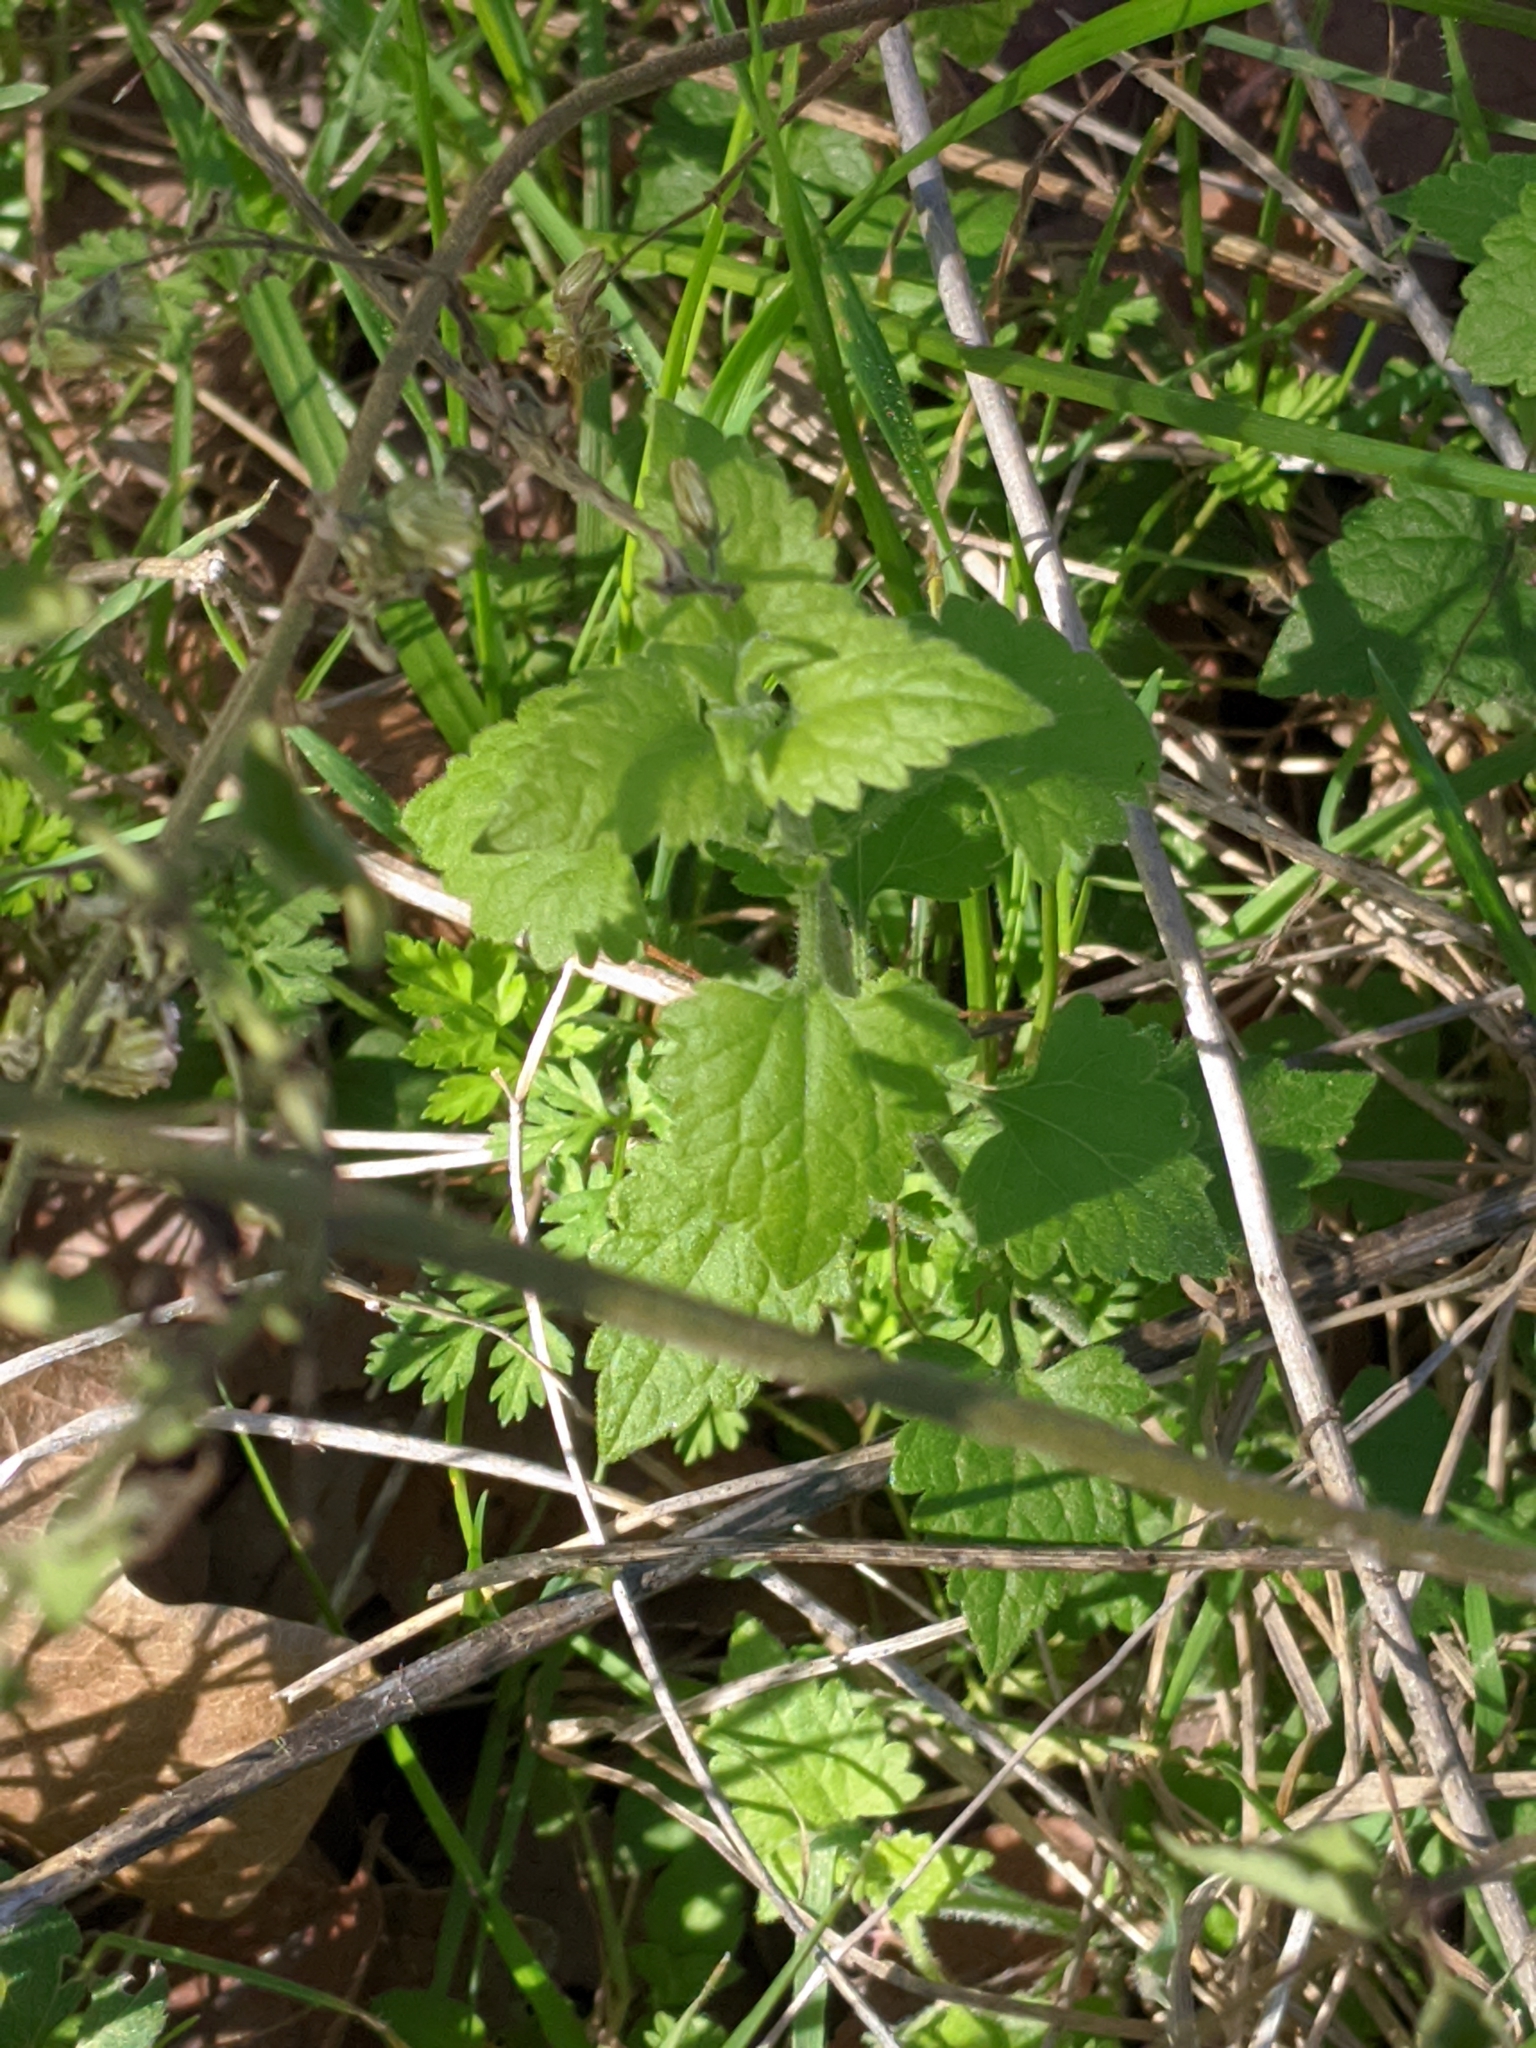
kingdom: Plantae
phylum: Tracheophyta
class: Magnoliopsida
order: Asterales
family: Asteraceae
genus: Fleischmannia
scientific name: Fleischmannia incarnata
